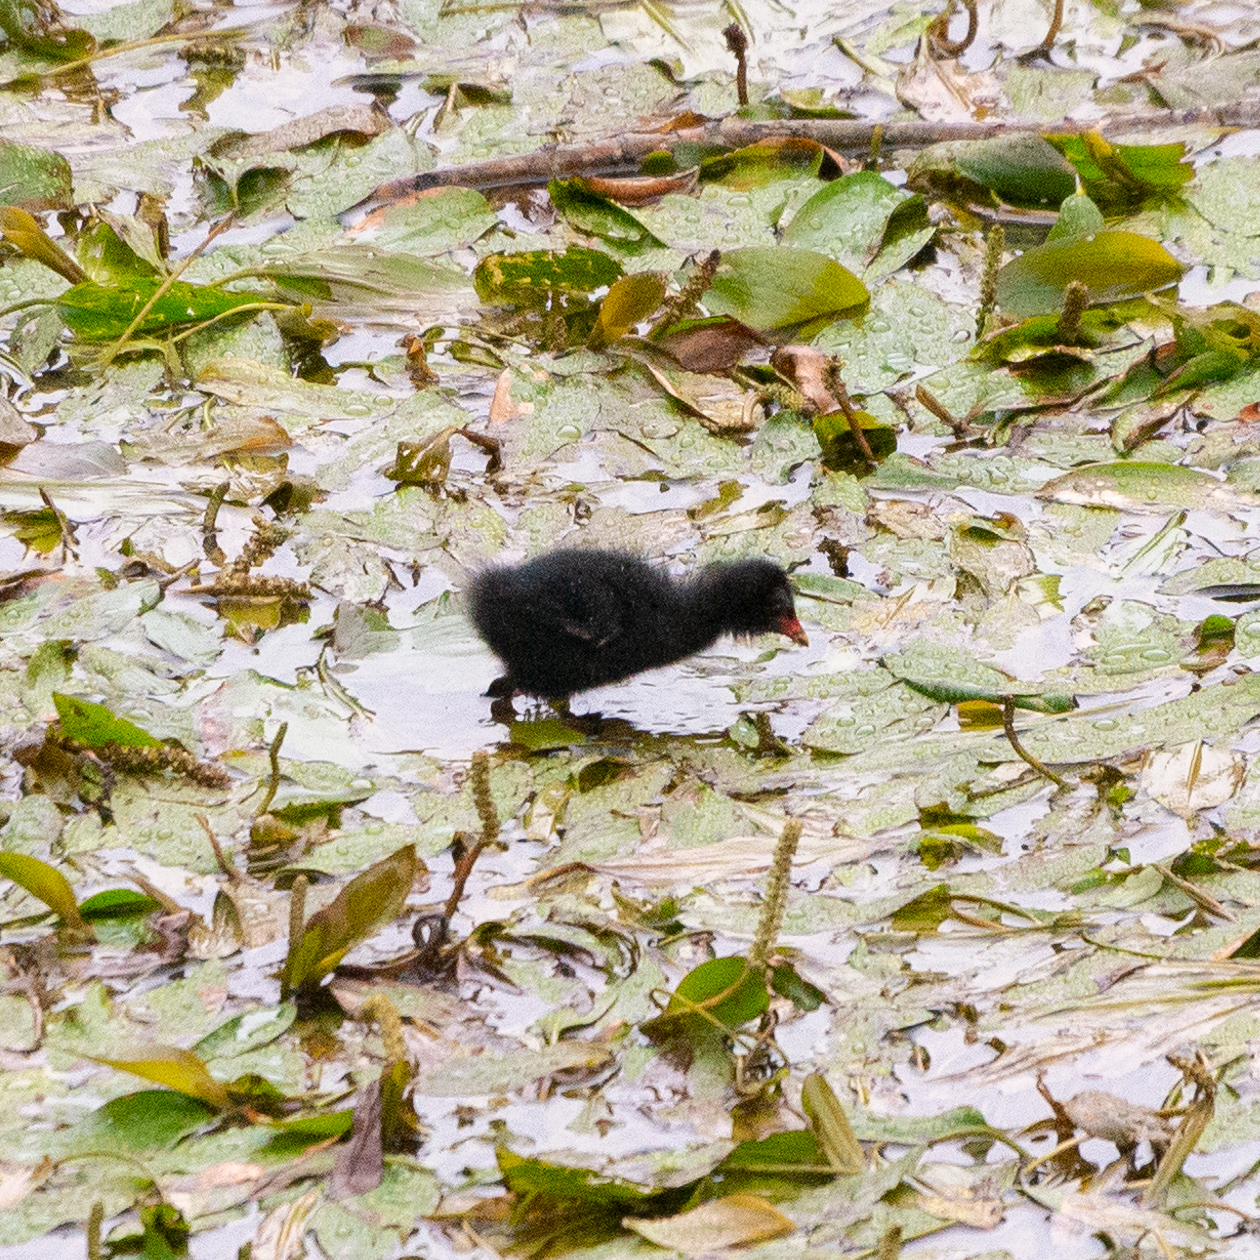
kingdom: Animalia
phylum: Chordata
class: Aves
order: Gruiformes
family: Rallidae
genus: Gallinula
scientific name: Gallinula chloropus
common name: Common moorhen
